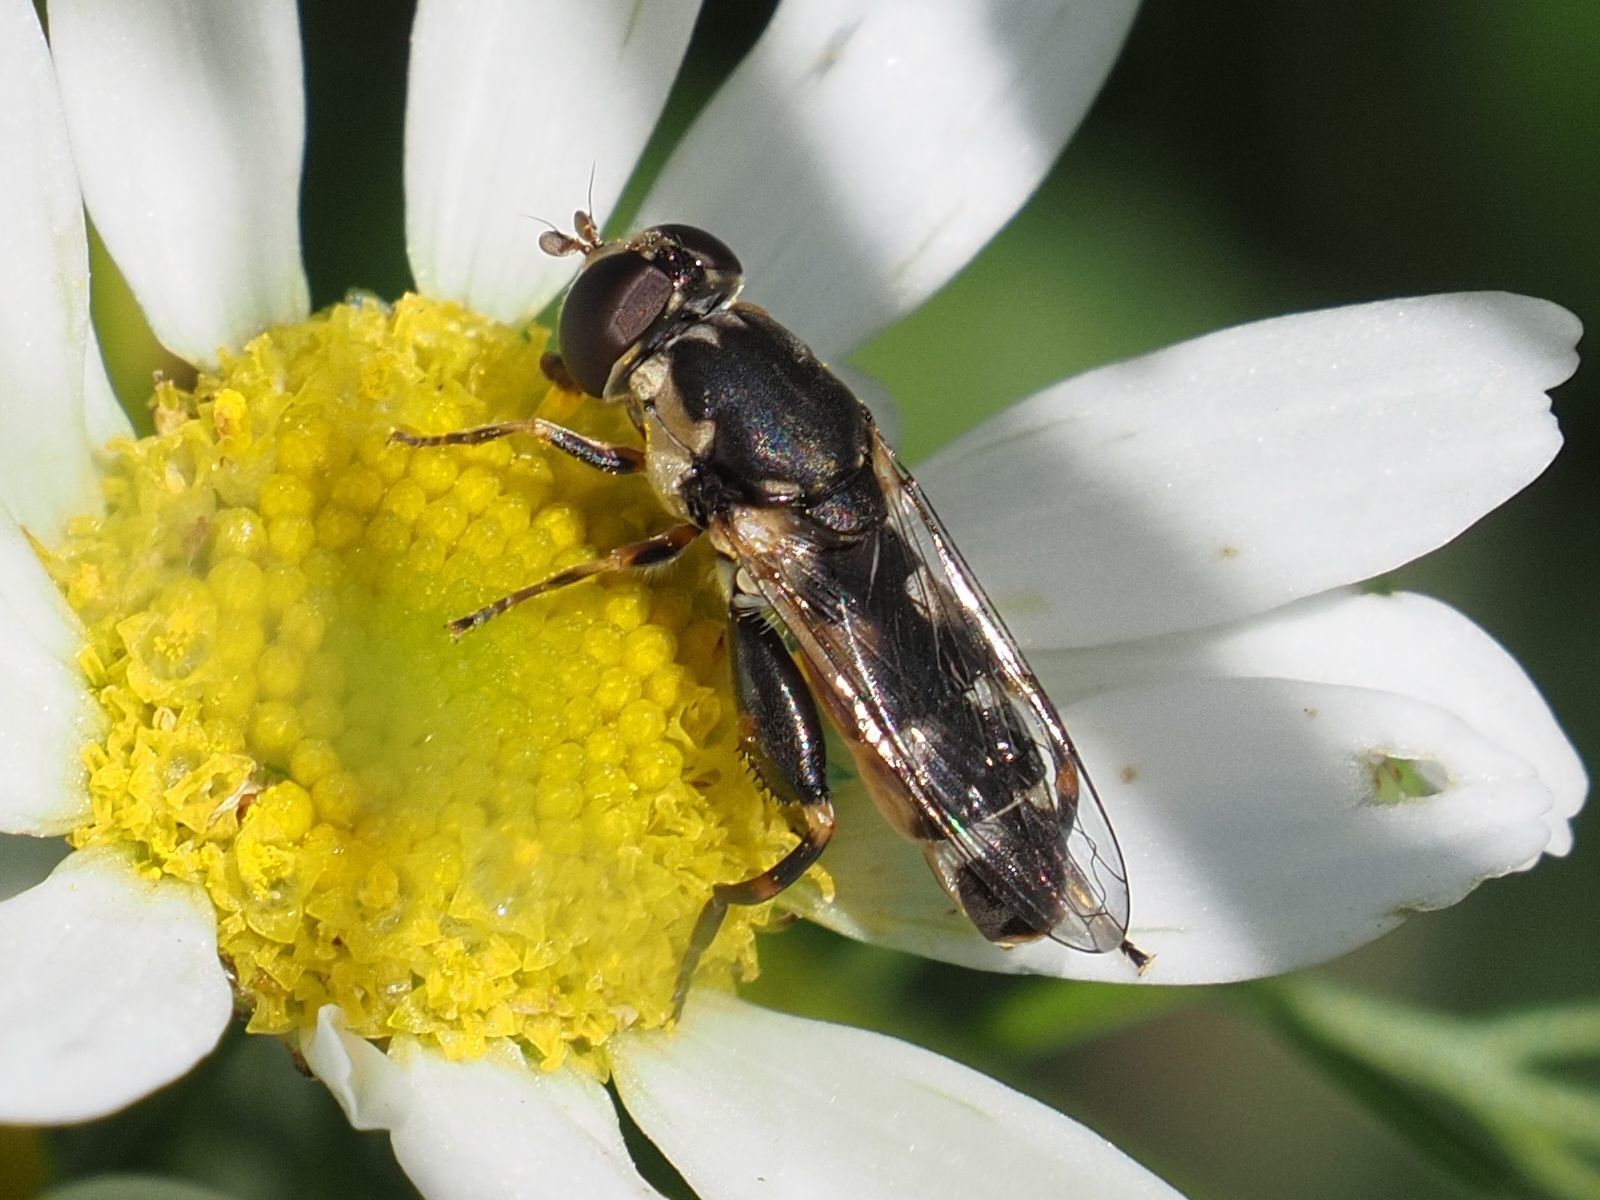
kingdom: Animalia
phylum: Arthropoda
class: Insecta
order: Diptera
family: Syrphidae
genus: Syritta
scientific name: Syritta pipiens
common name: Hover fly
